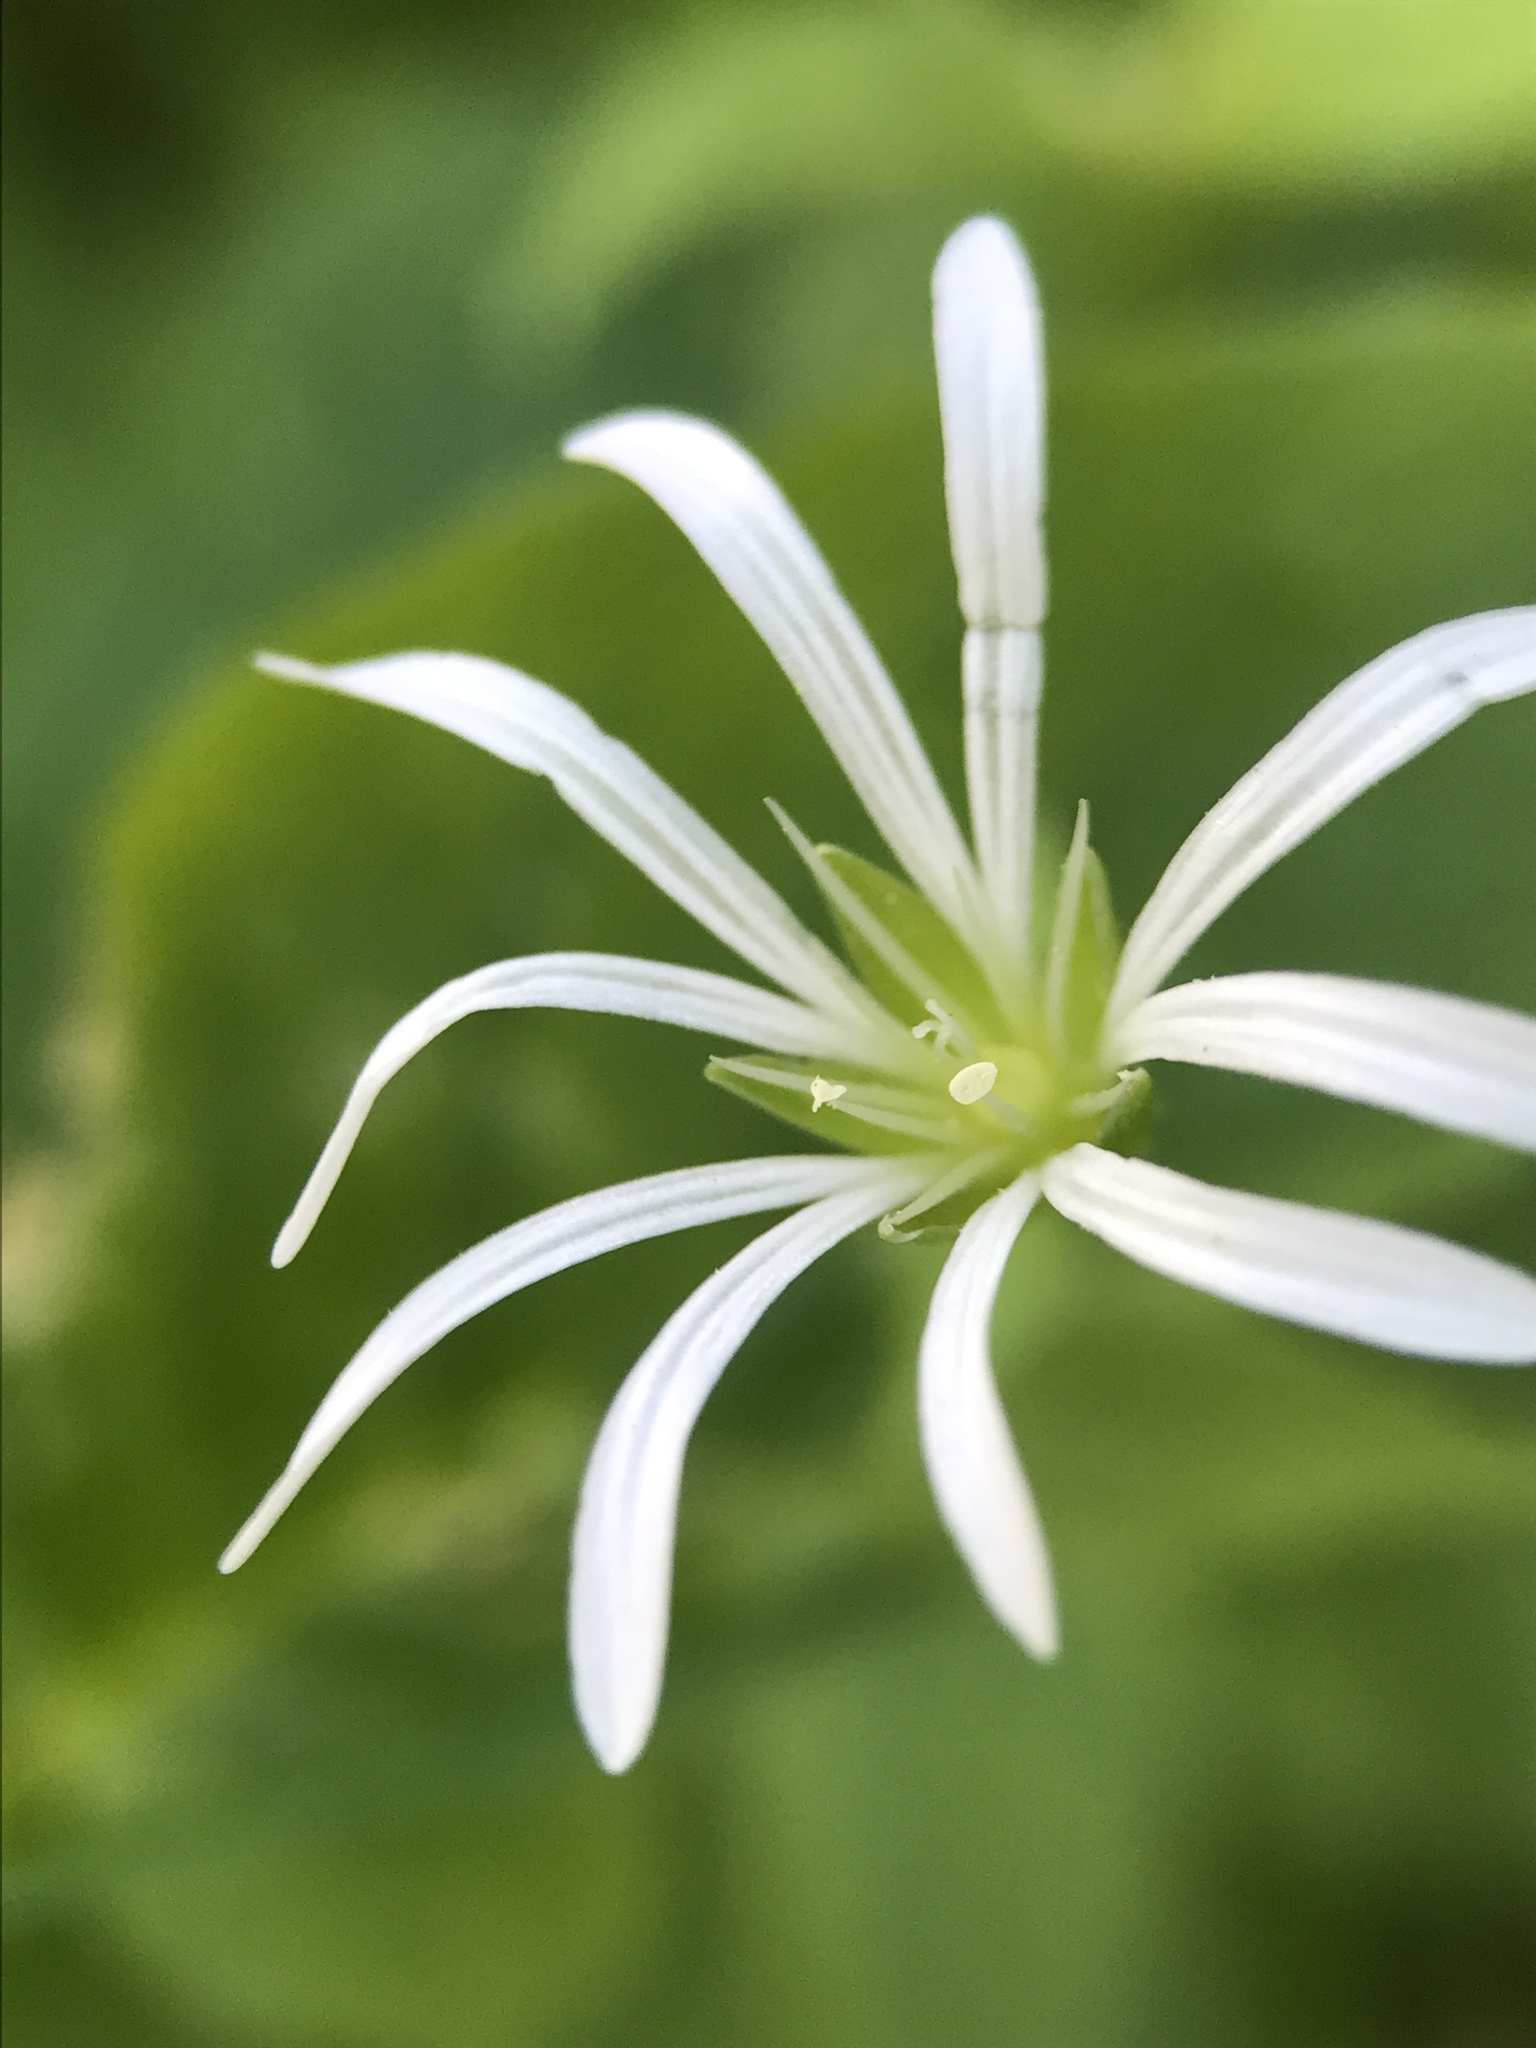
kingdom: Plantae
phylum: Tracheophyta
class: Magnoliopsida
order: Caryophyllales
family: Caryophyllaceae
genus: Stellaria
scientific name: Stellaria nemorum
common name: Wood stitchwort
